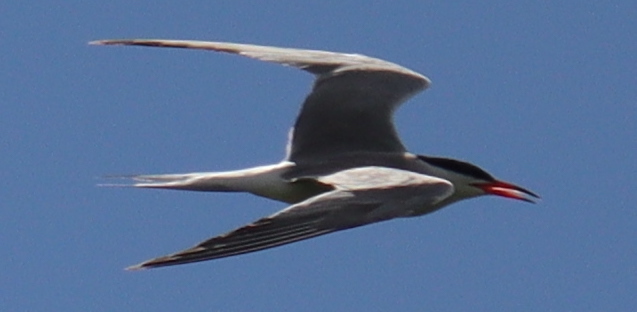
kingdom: Animalia
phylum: Chordata
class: Aves
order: Charadriiformes
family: Laridae
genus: Sterna
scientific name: Sterna hirundo
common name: Common tern
